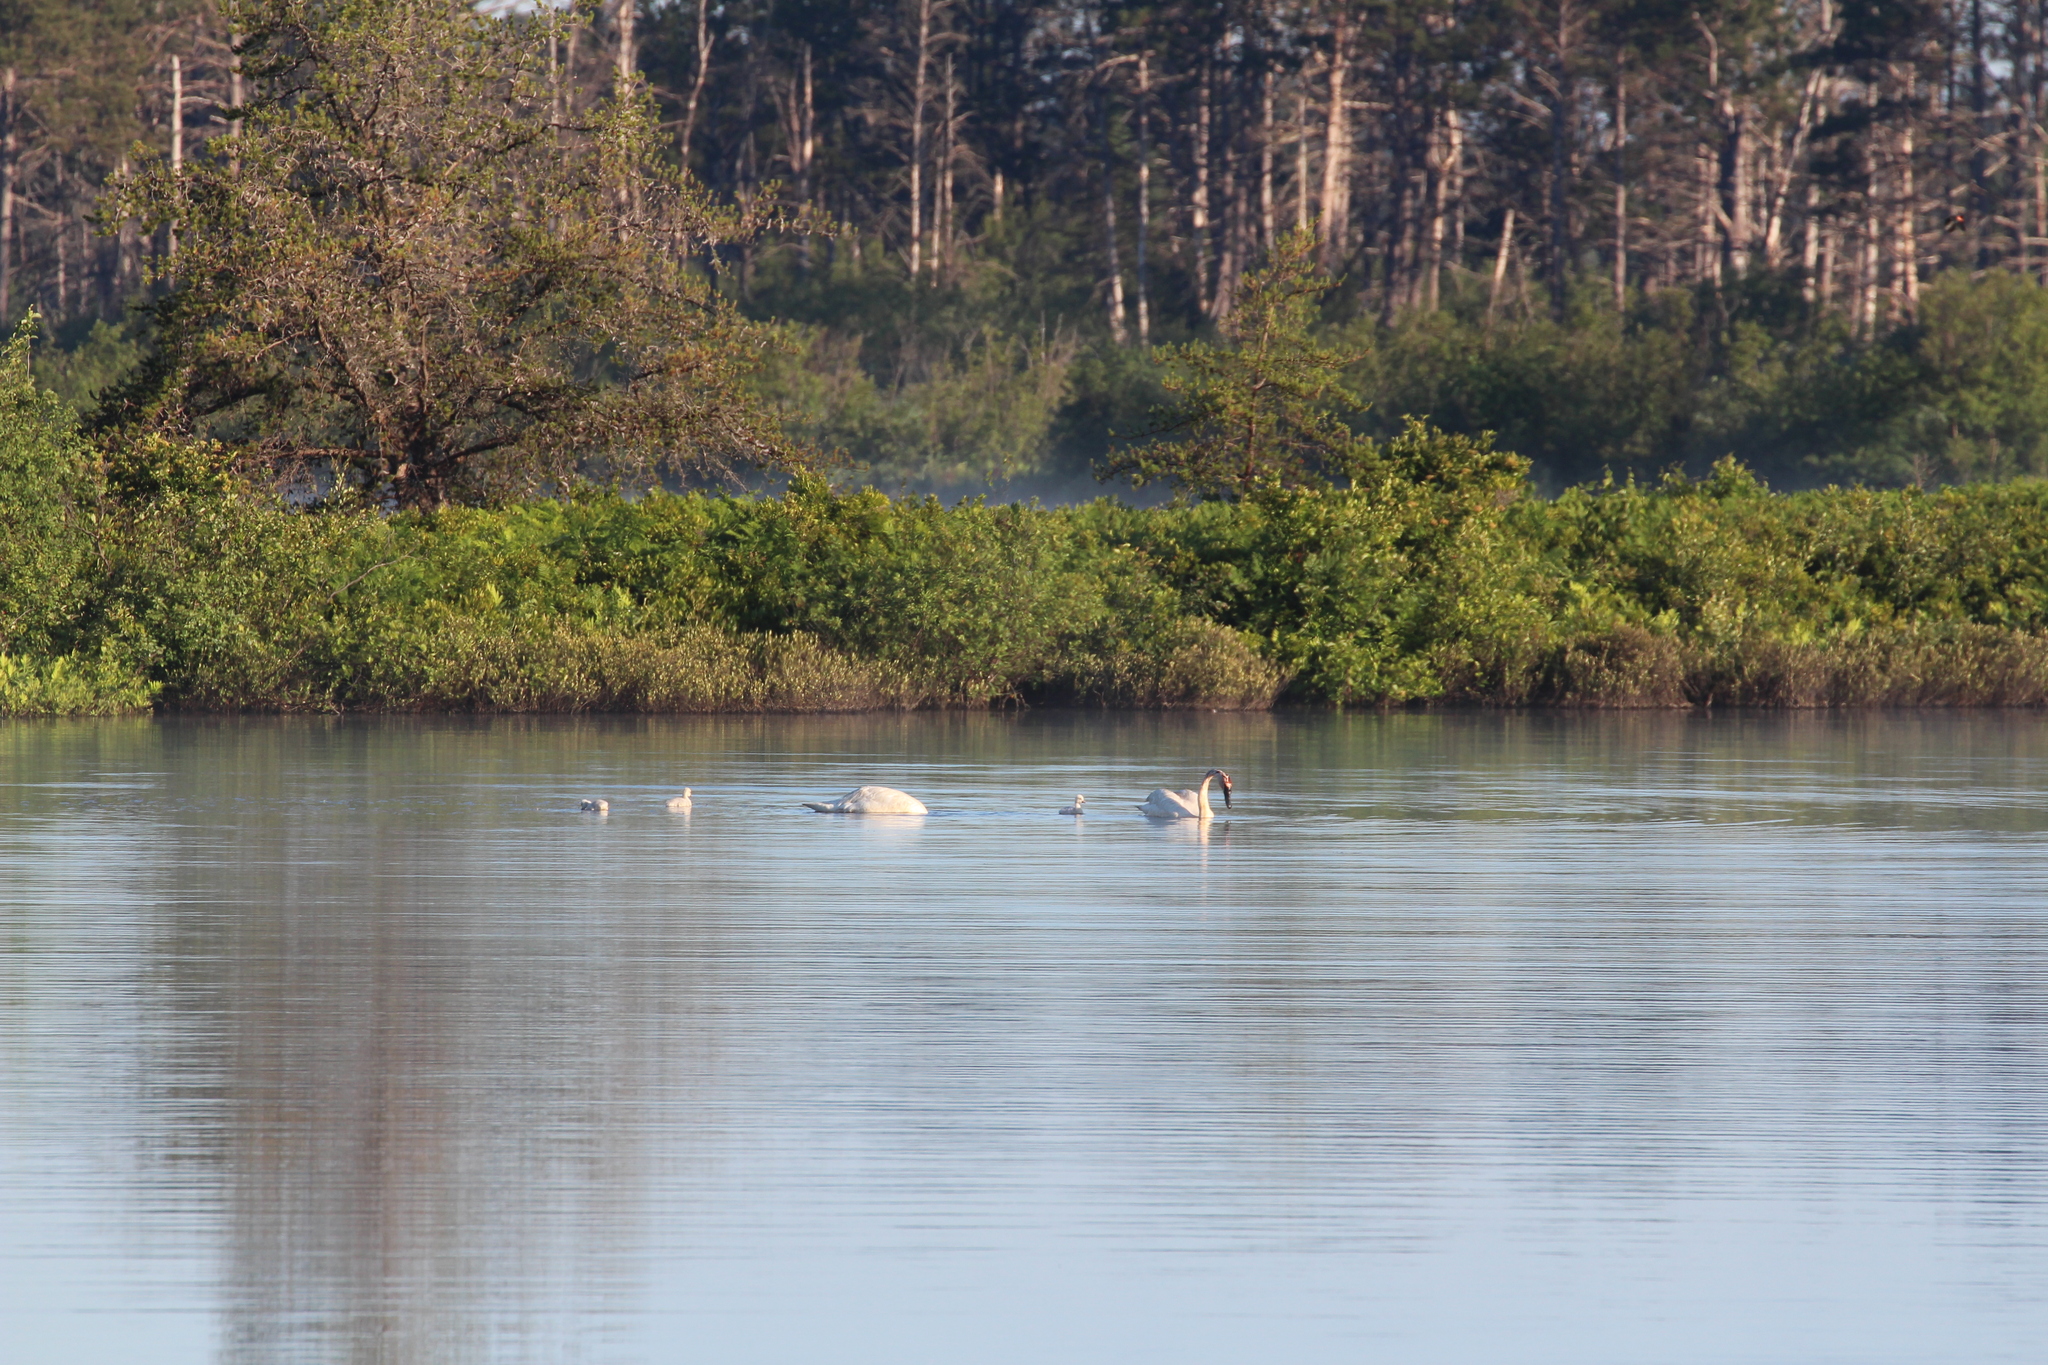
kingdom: Animalia
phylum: Chordata
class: Aves
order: Anseriformes
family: Anatidae
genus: Cygnus
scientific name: Cygnus buccinator
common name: Trumpeter swan
